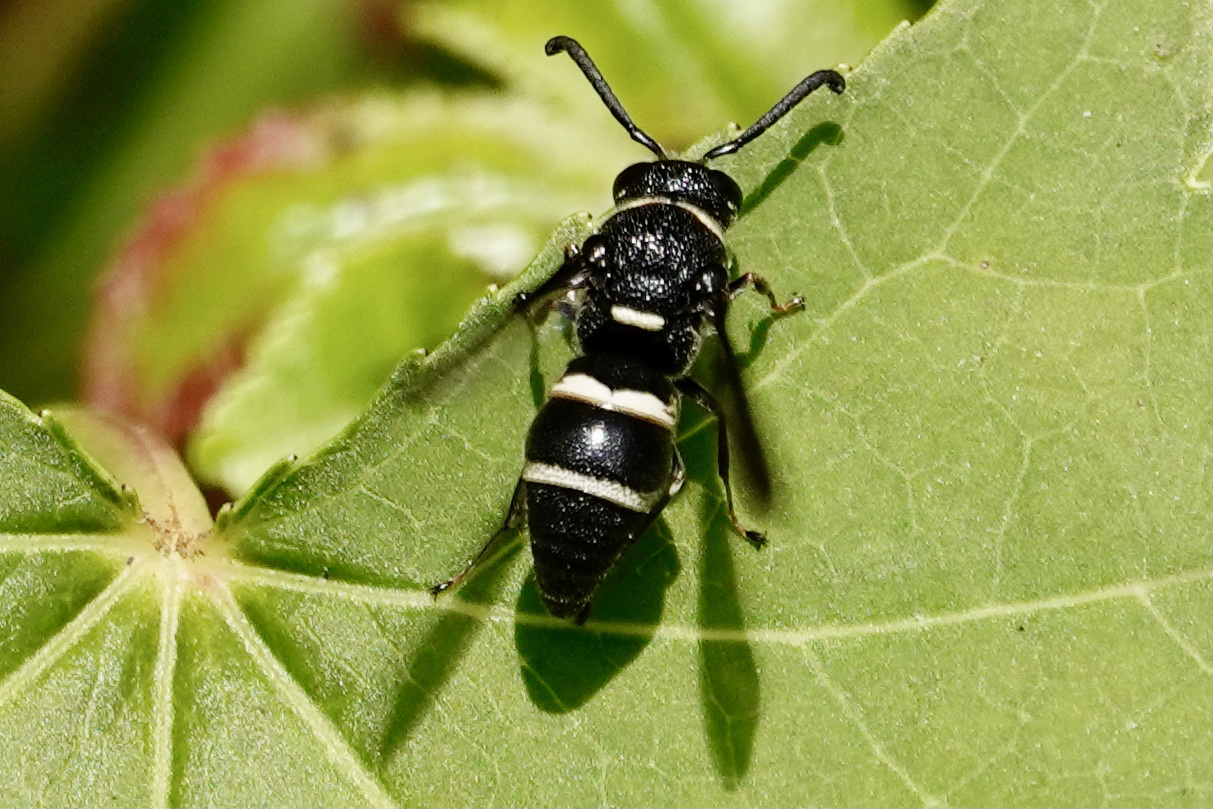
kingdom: Animalia
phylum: Arthropoda
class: Insecta
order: Hymenoptera
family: Eumenidae
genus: Euodynerus
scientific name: Euodynerus megaera
